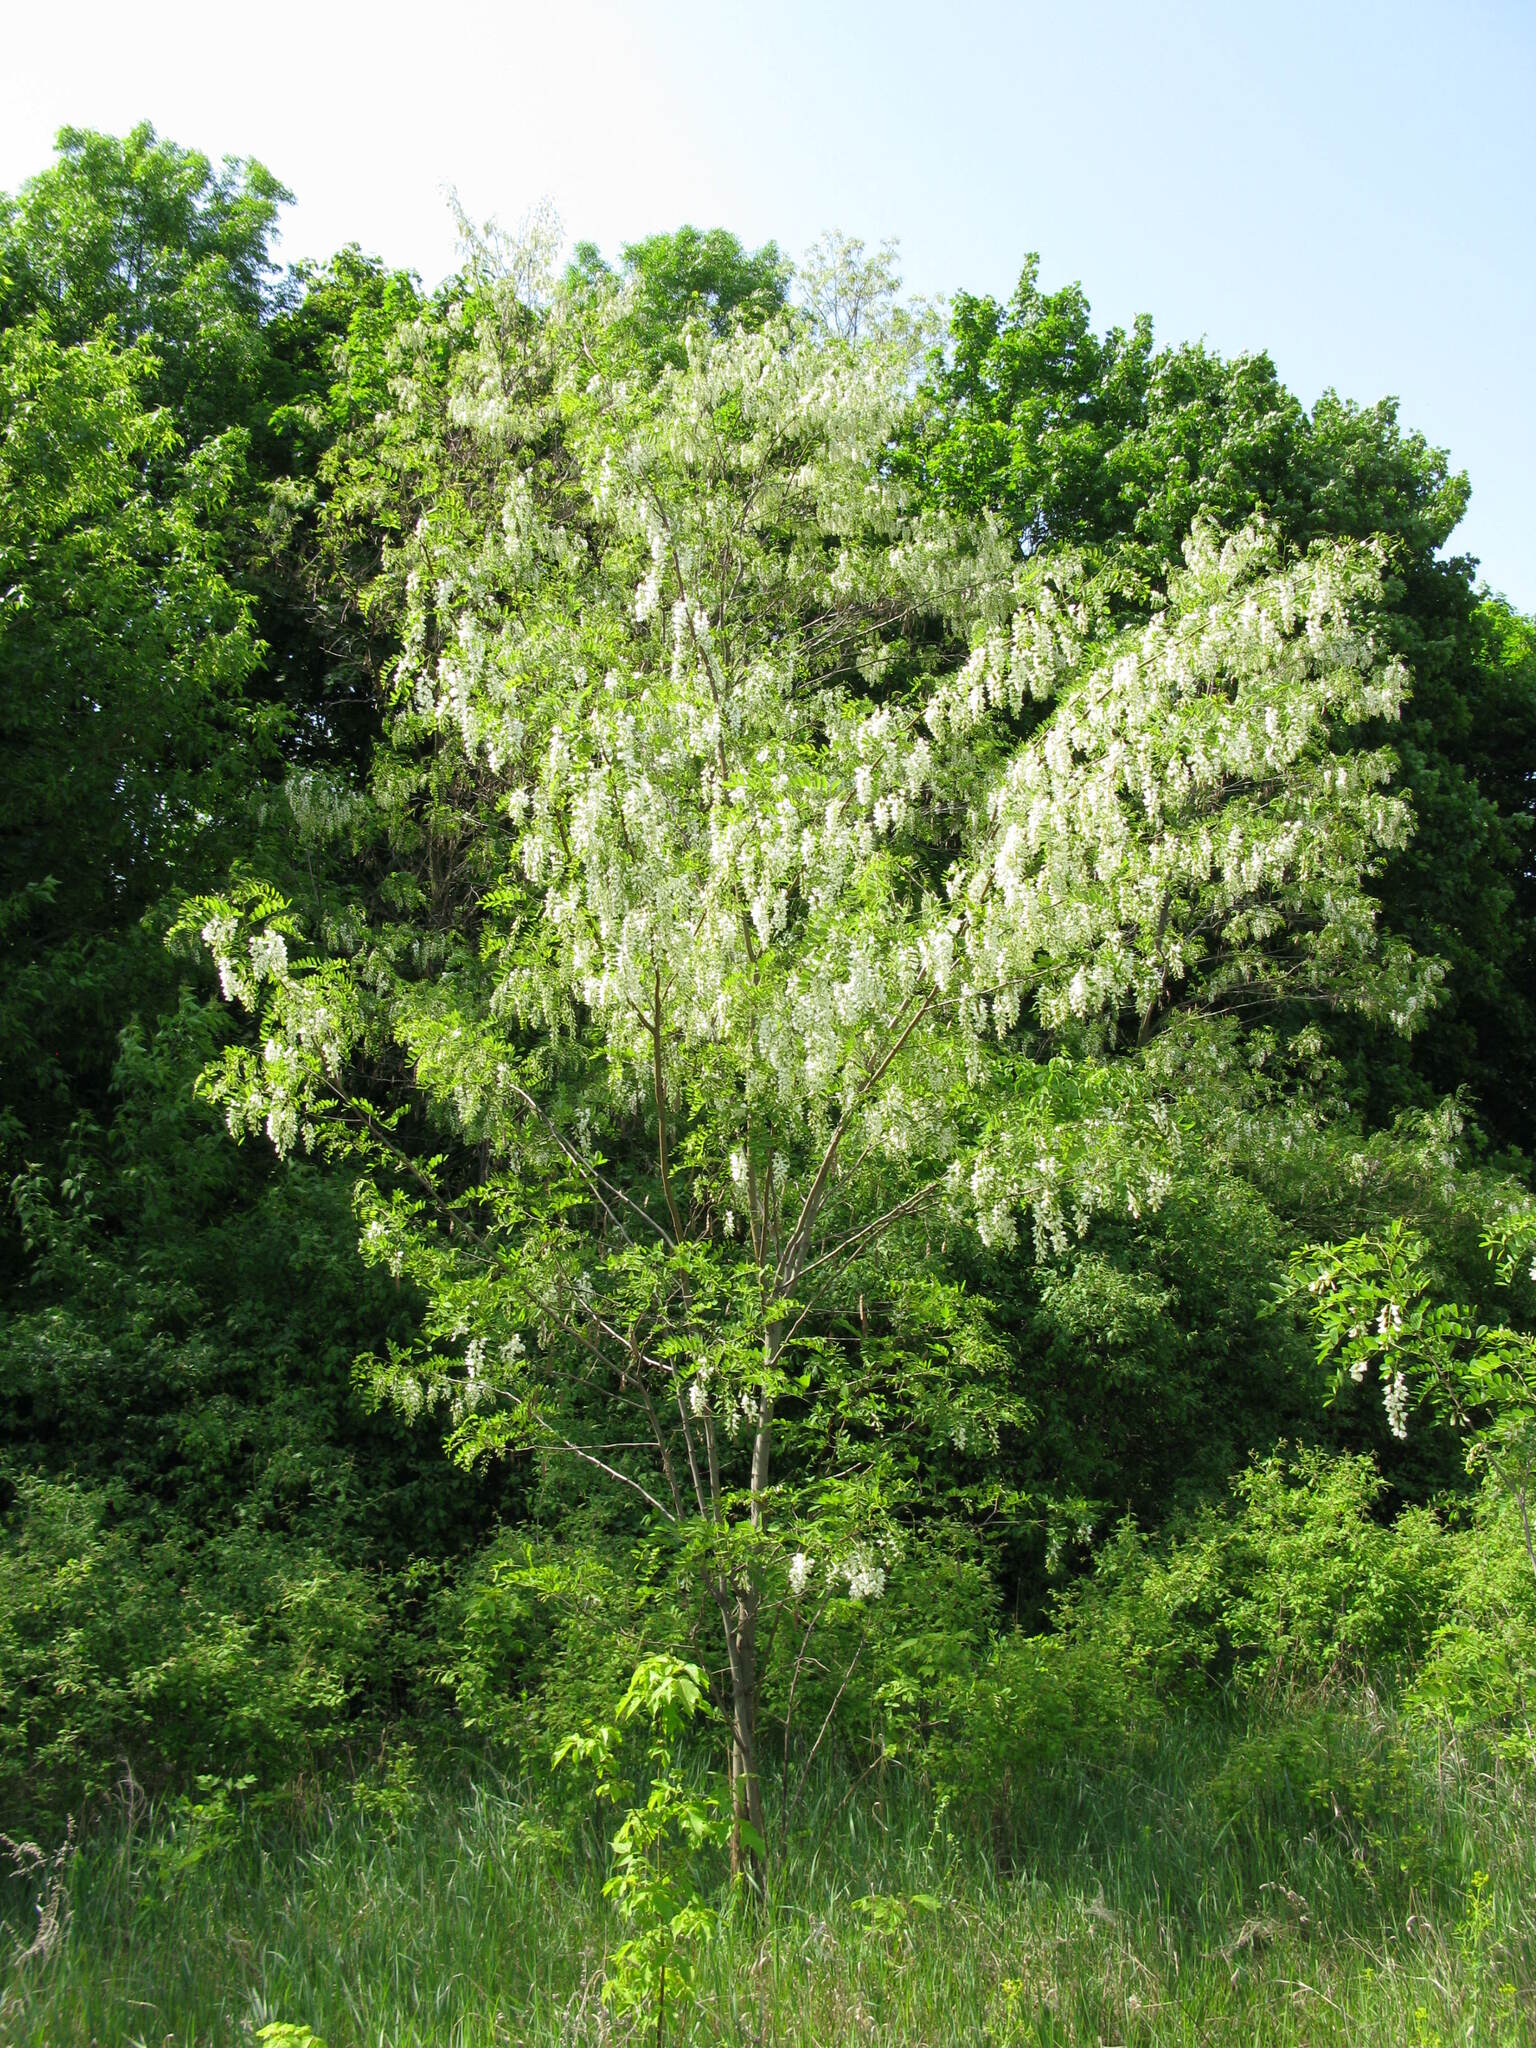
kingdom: Plantae
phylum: Tracheophyta
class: Magnoliopsida
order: Fabales
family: Fabaceae
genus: Robinia
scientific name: Robinia pseudoacacia
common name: Black locust
